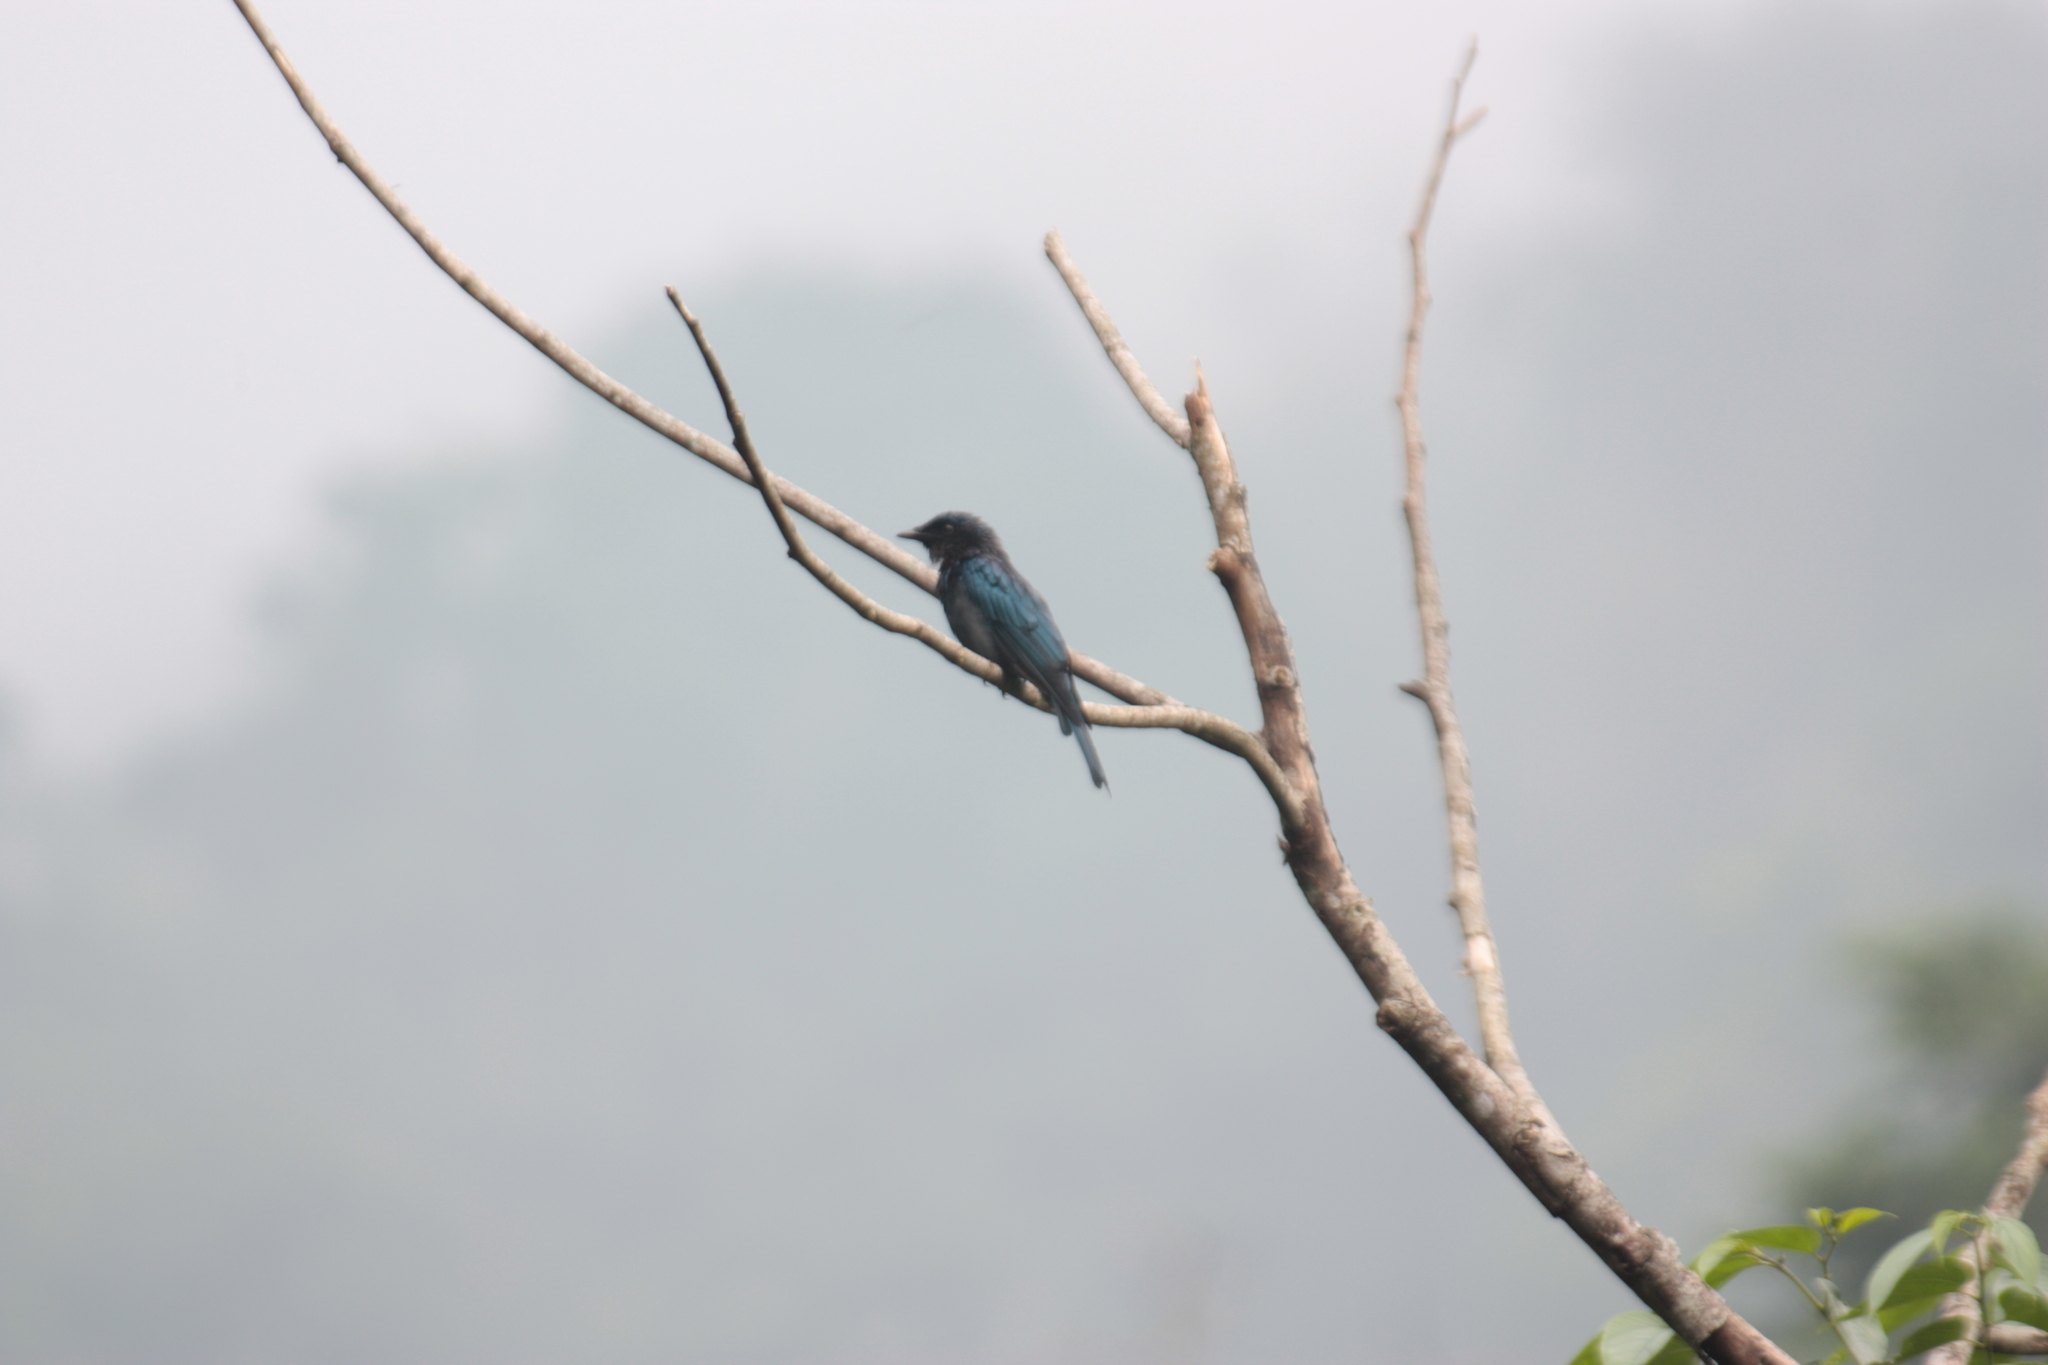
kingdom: Animalia
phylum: Chordata
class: Aves
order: Passeriformes
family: Dicruridae
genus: Dicrurus
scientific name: Dicrurus aeneus
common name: Bronzed drongo
